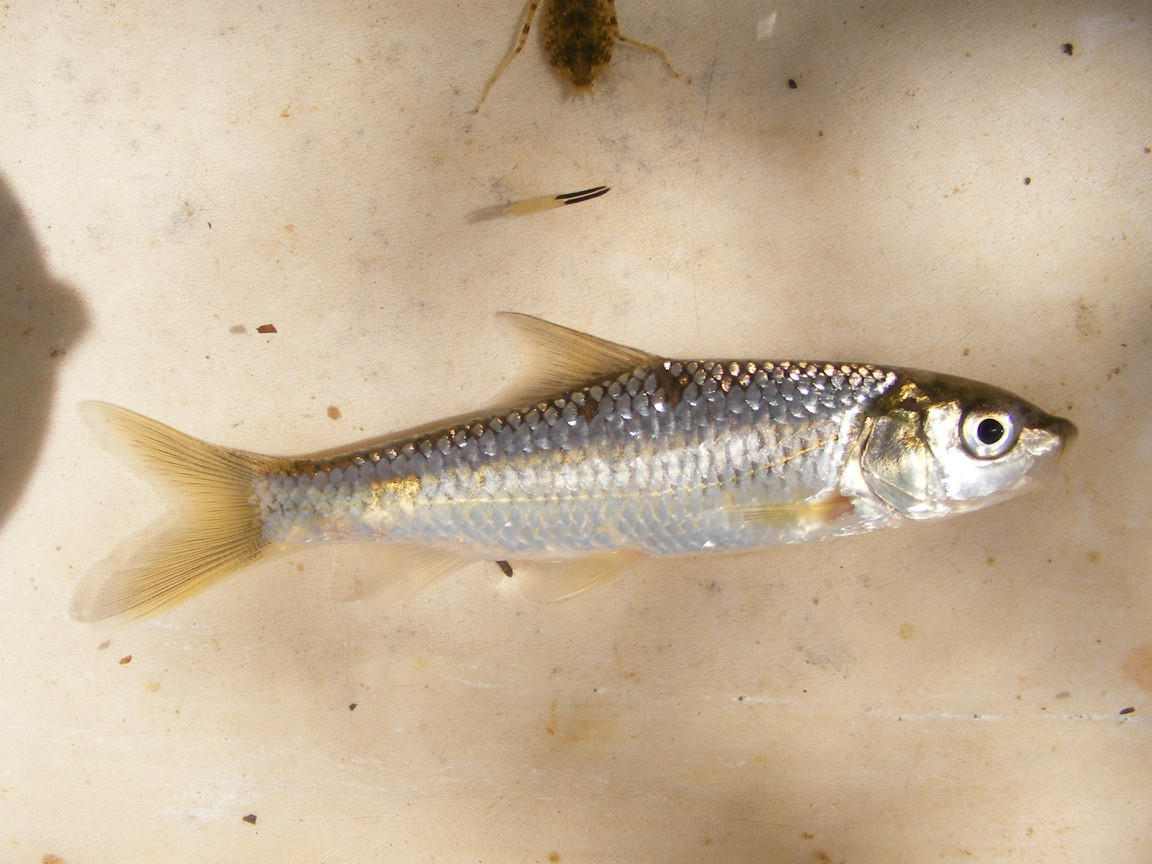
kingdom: Animalia
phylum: Chordata
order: Cypriniformes
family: Cyprinidae
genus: Labeobarbus
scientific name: Labeobarbus natalensis
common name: Scaly
